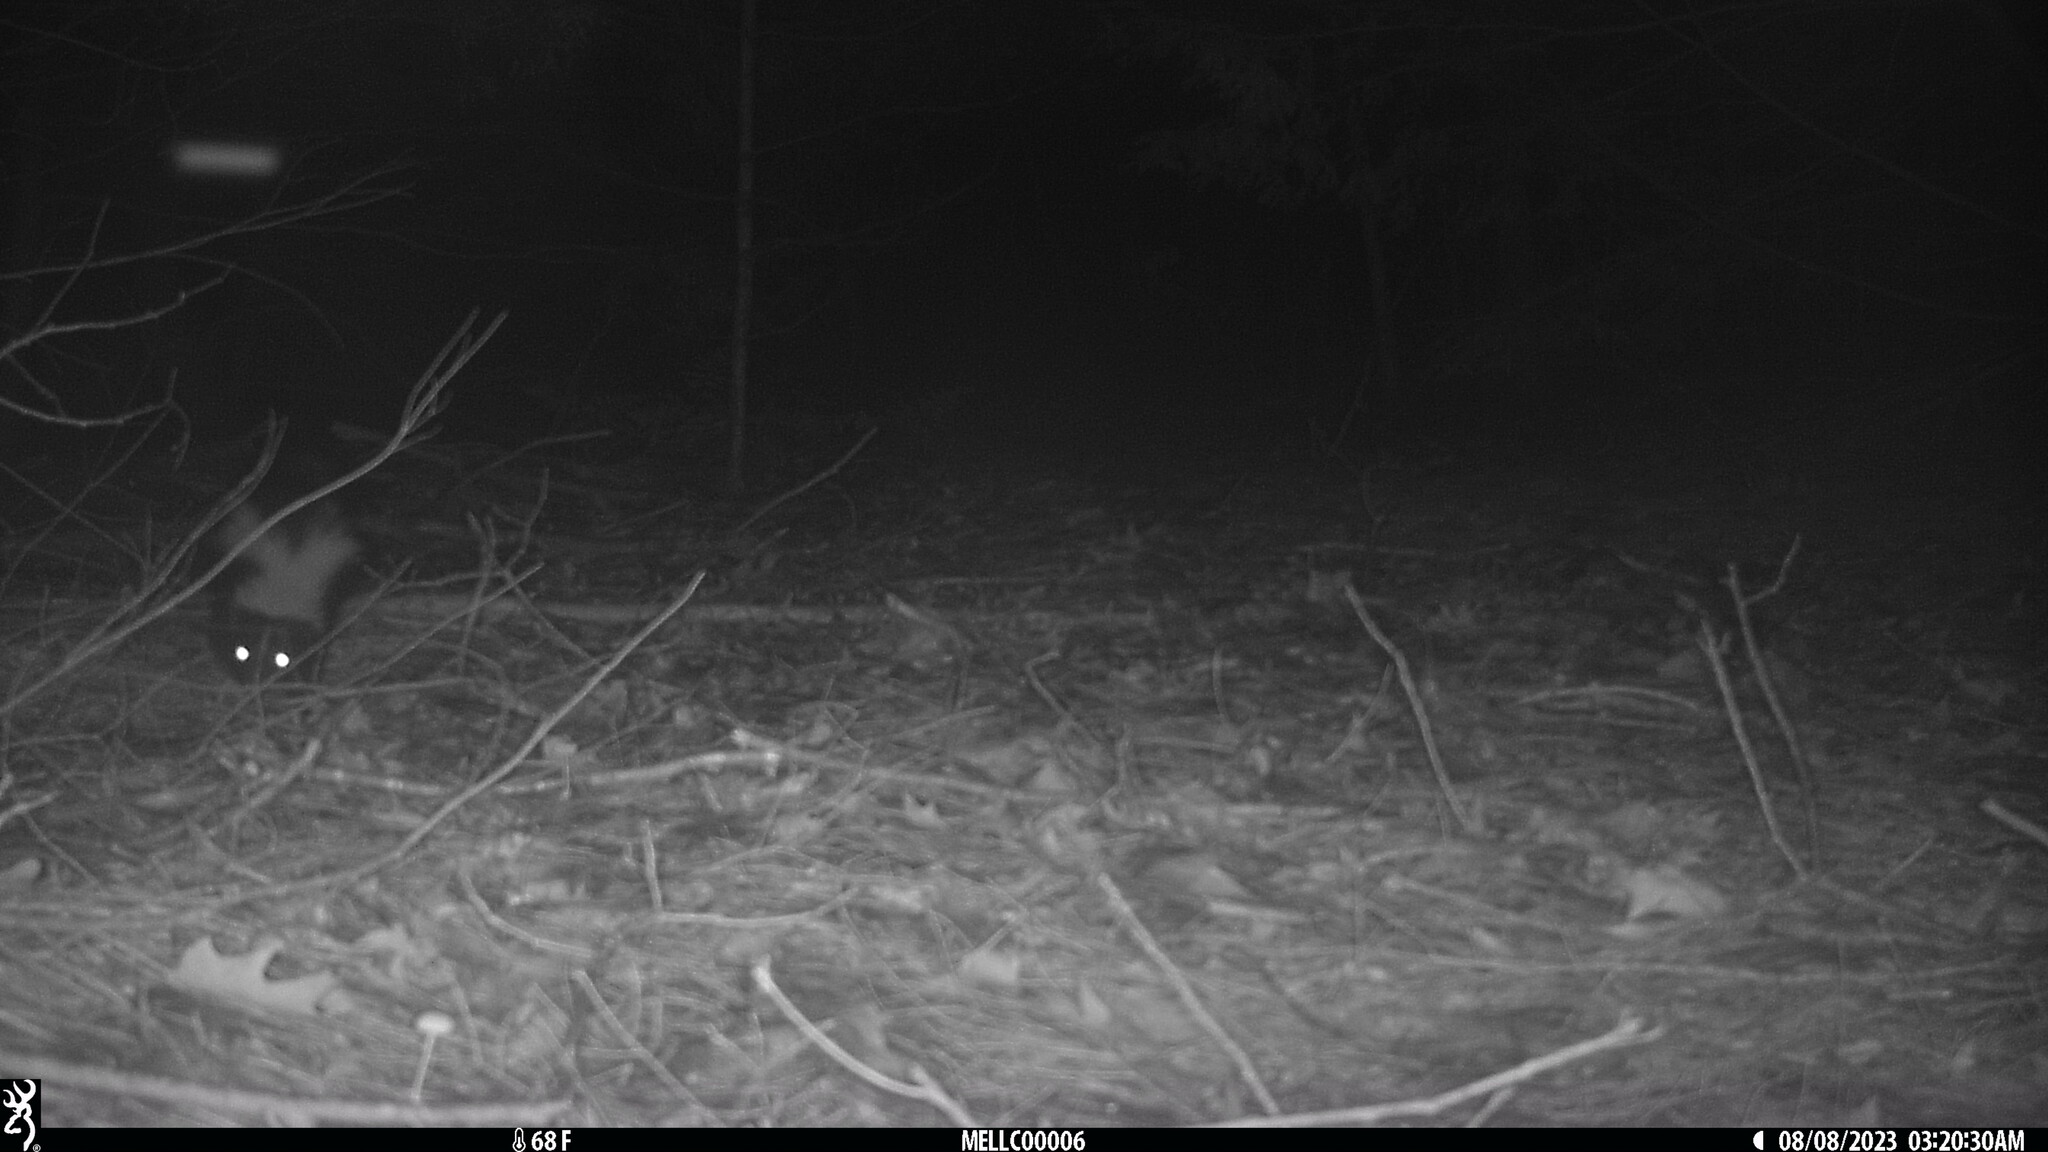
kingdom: Animalia
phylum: Chordata
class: Mammalia
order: Carnivora
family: Mephitidae
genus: Mephitis
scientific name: Mephitis mephitis
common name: Striped skunk
